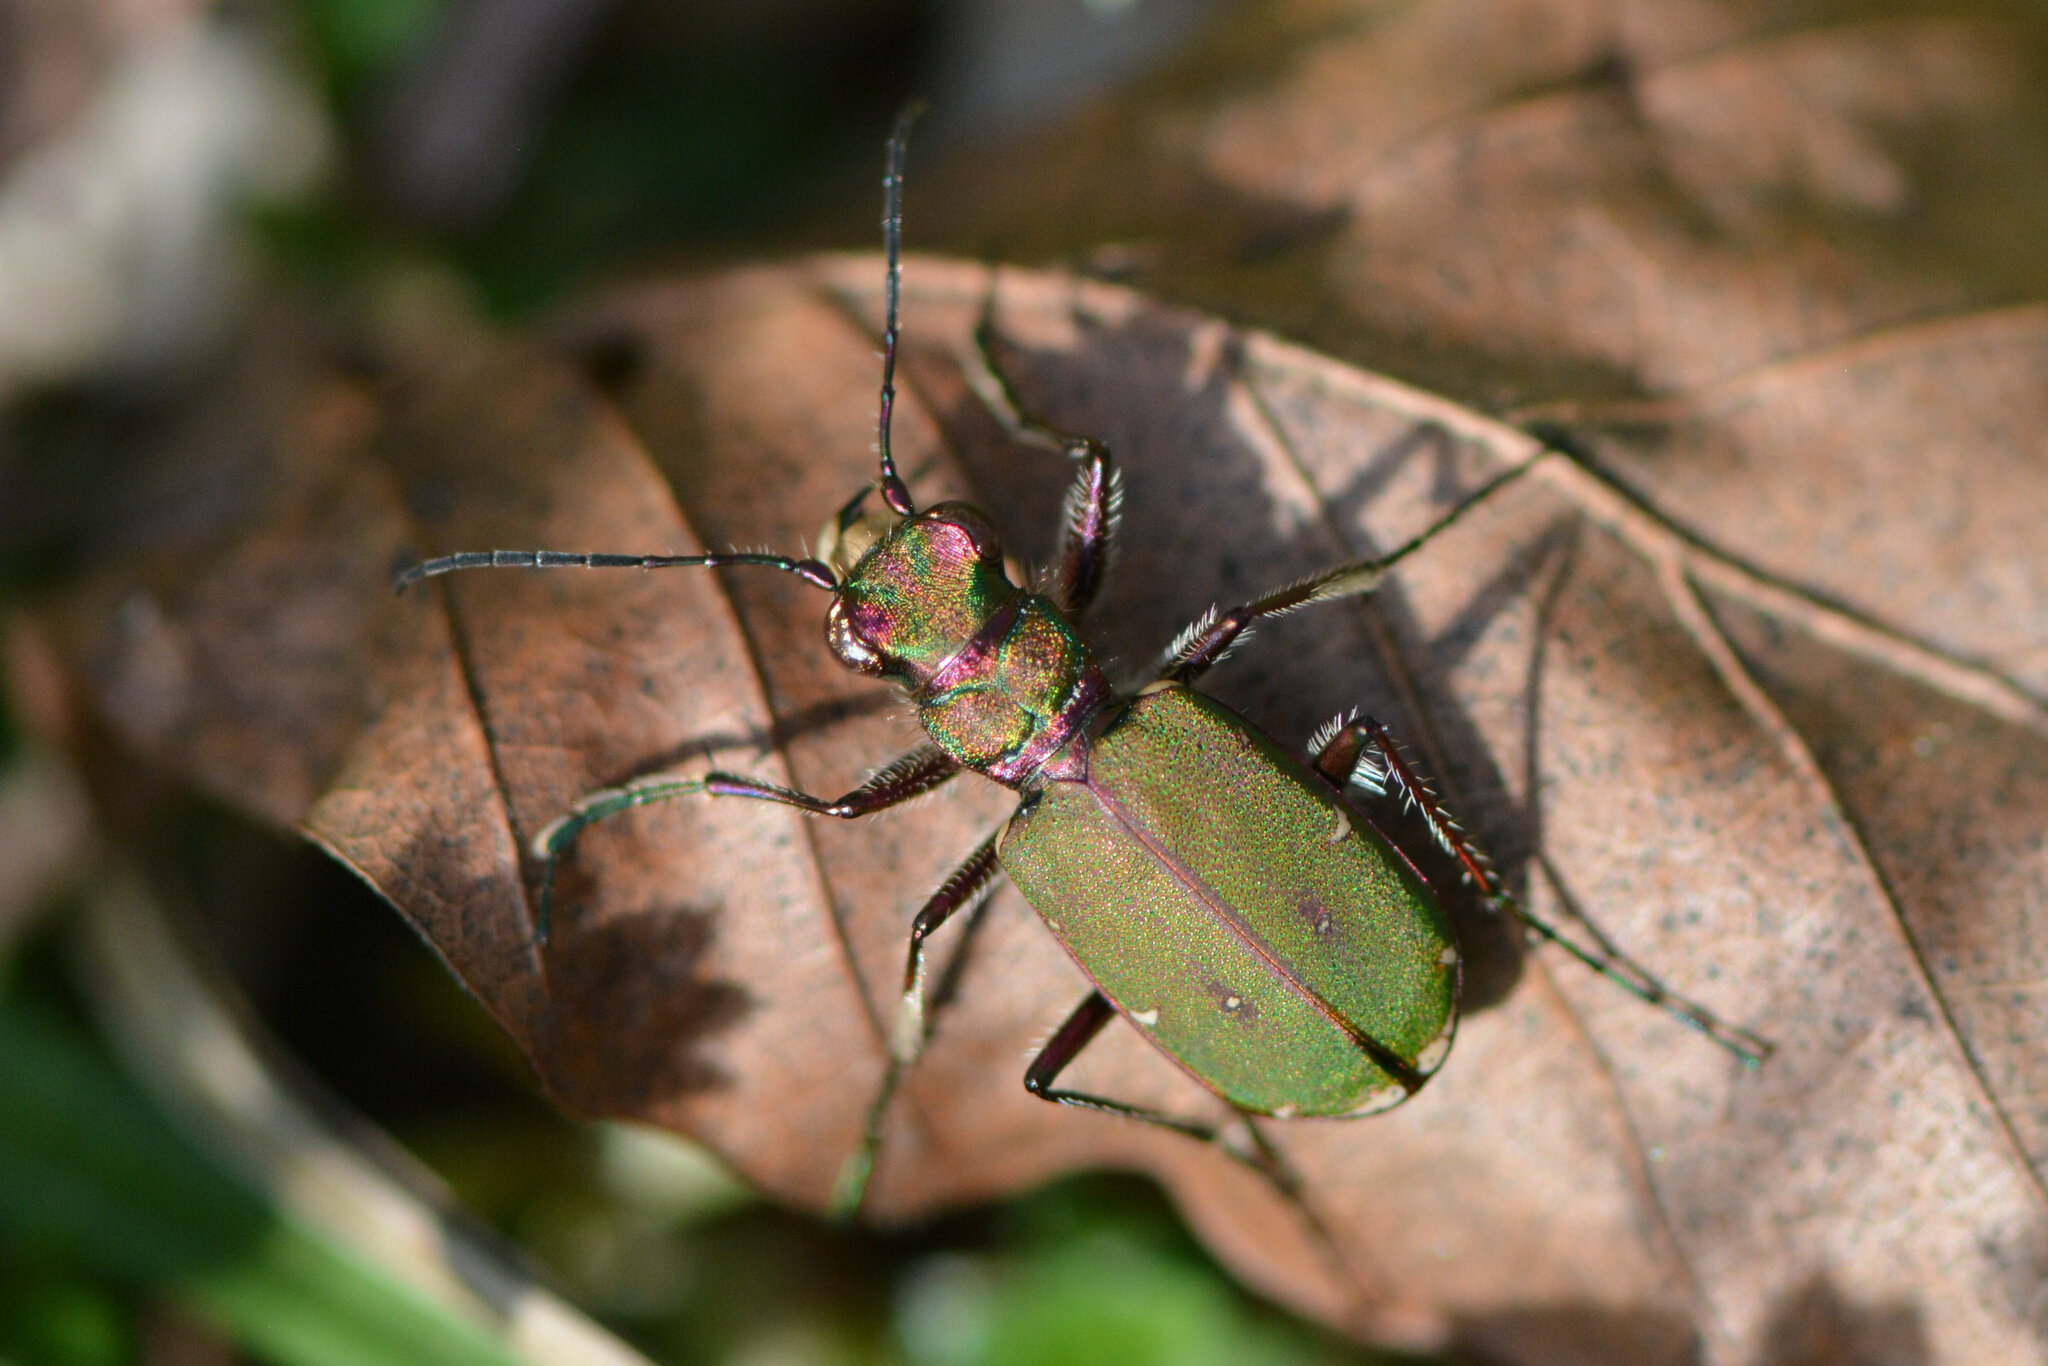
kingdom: Animalia
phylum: Arthropoda
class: Insecta
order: Coleoptera
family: Carabidae
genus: Cicindela
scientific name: Cicindela campestris
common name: Common tiger beetle
